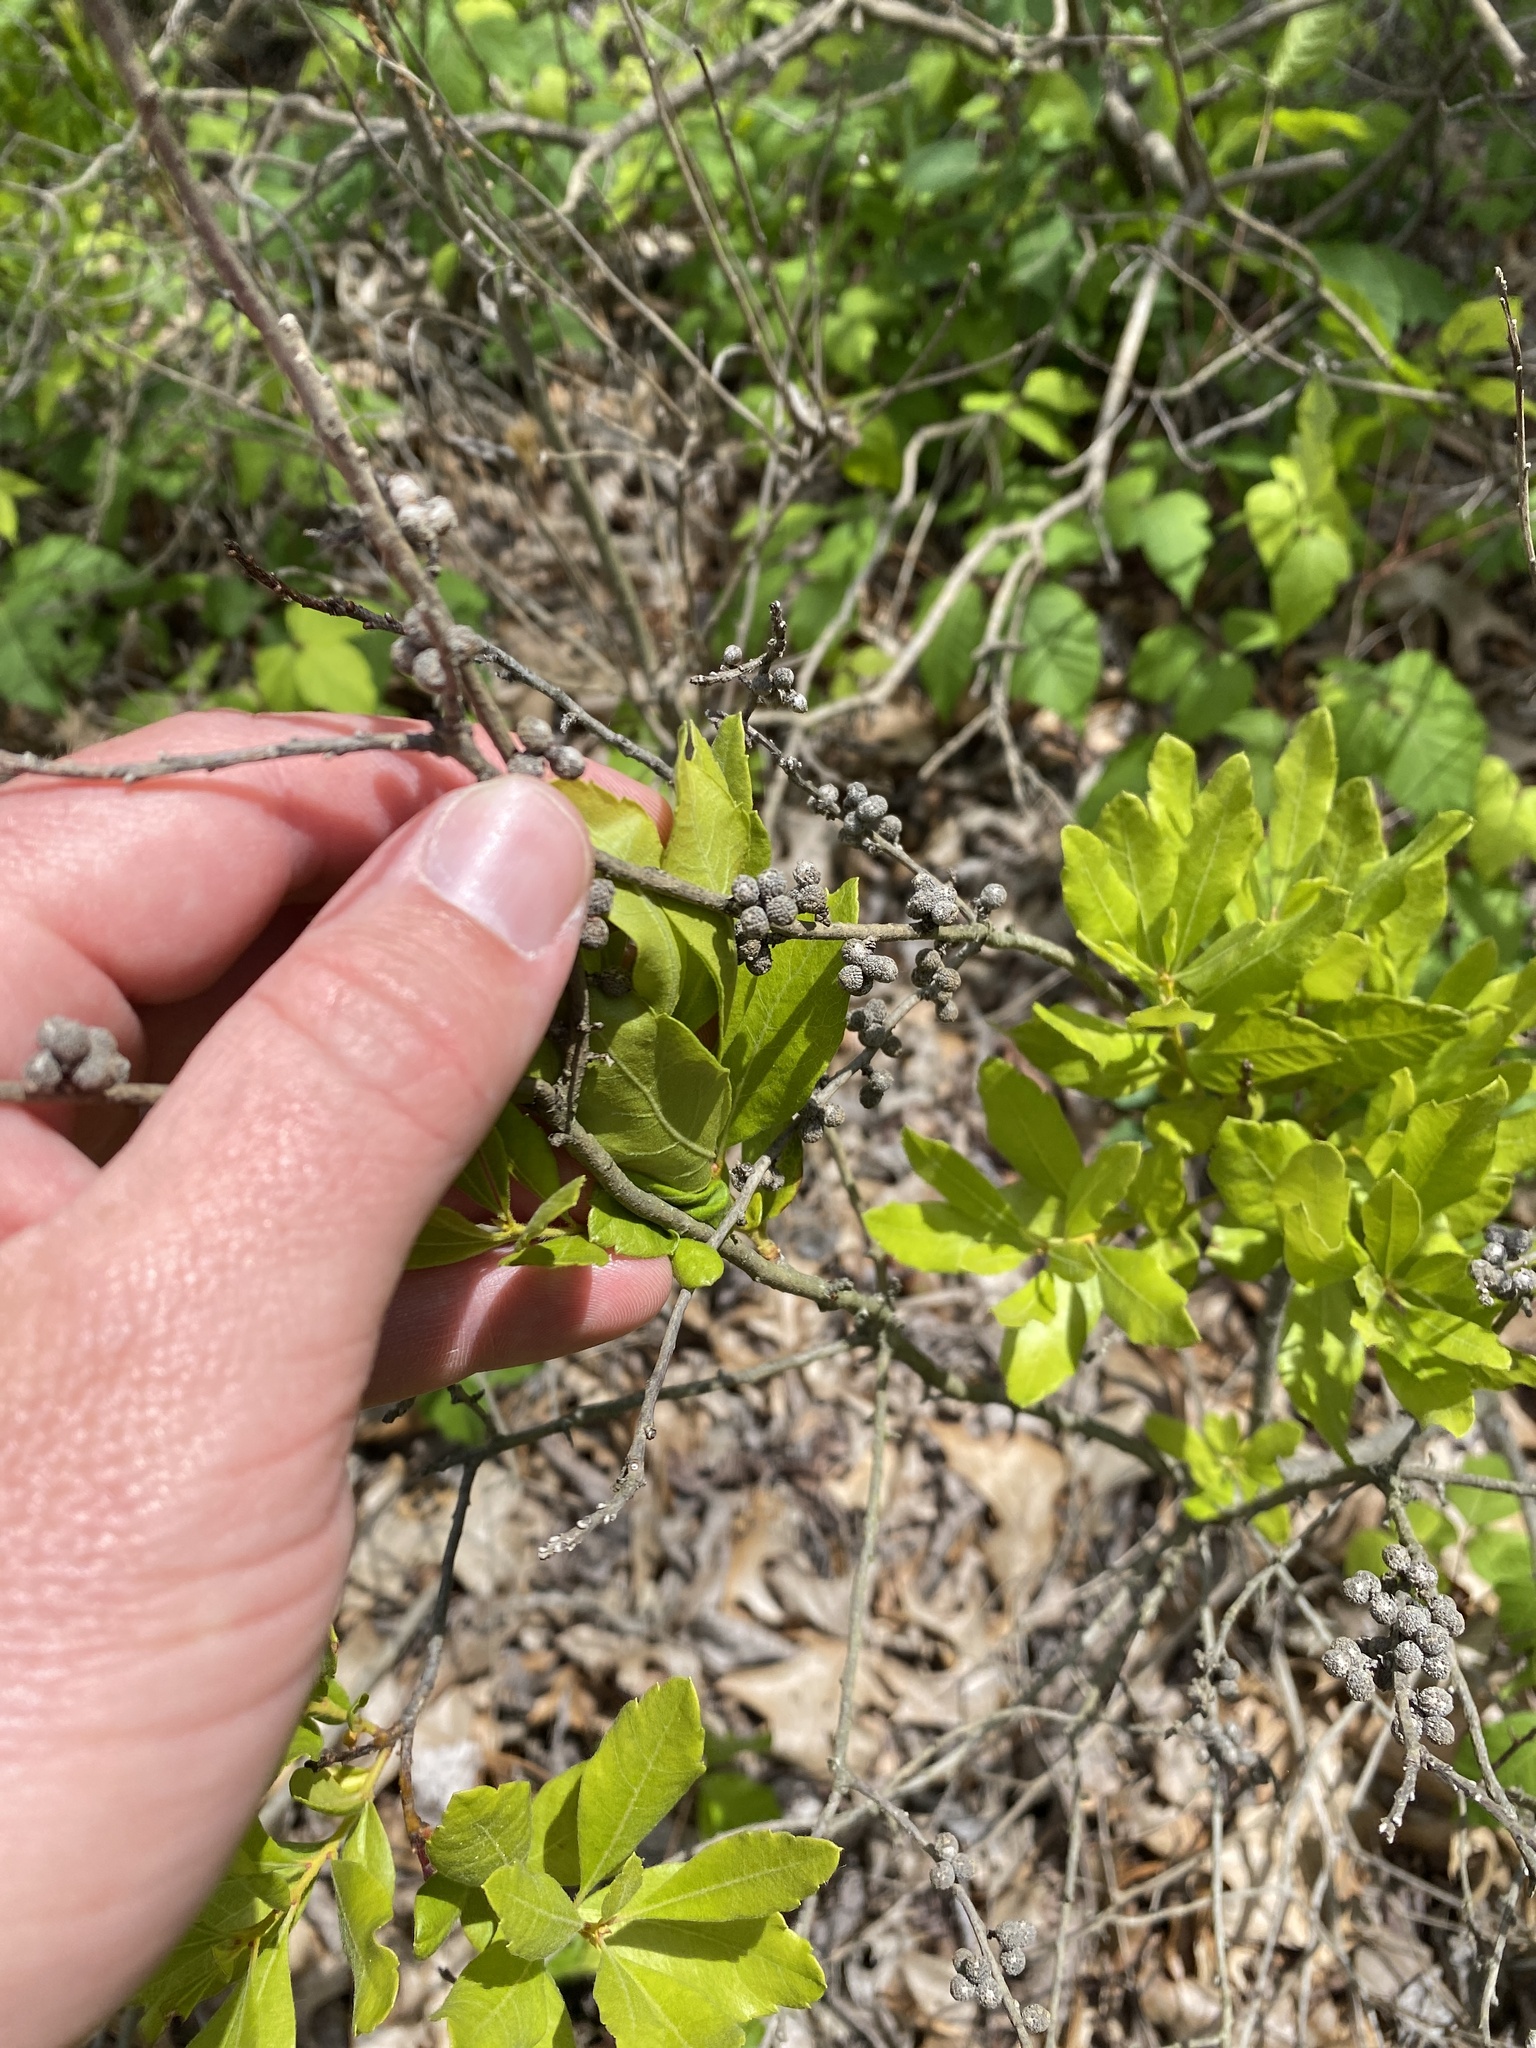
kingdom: Plantae
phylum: Tracheophyta
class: Magnoliopsida
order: Fagales
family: Myricaceae
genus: Morella
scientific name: Morella pensylvanica
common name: Northern bayberry
